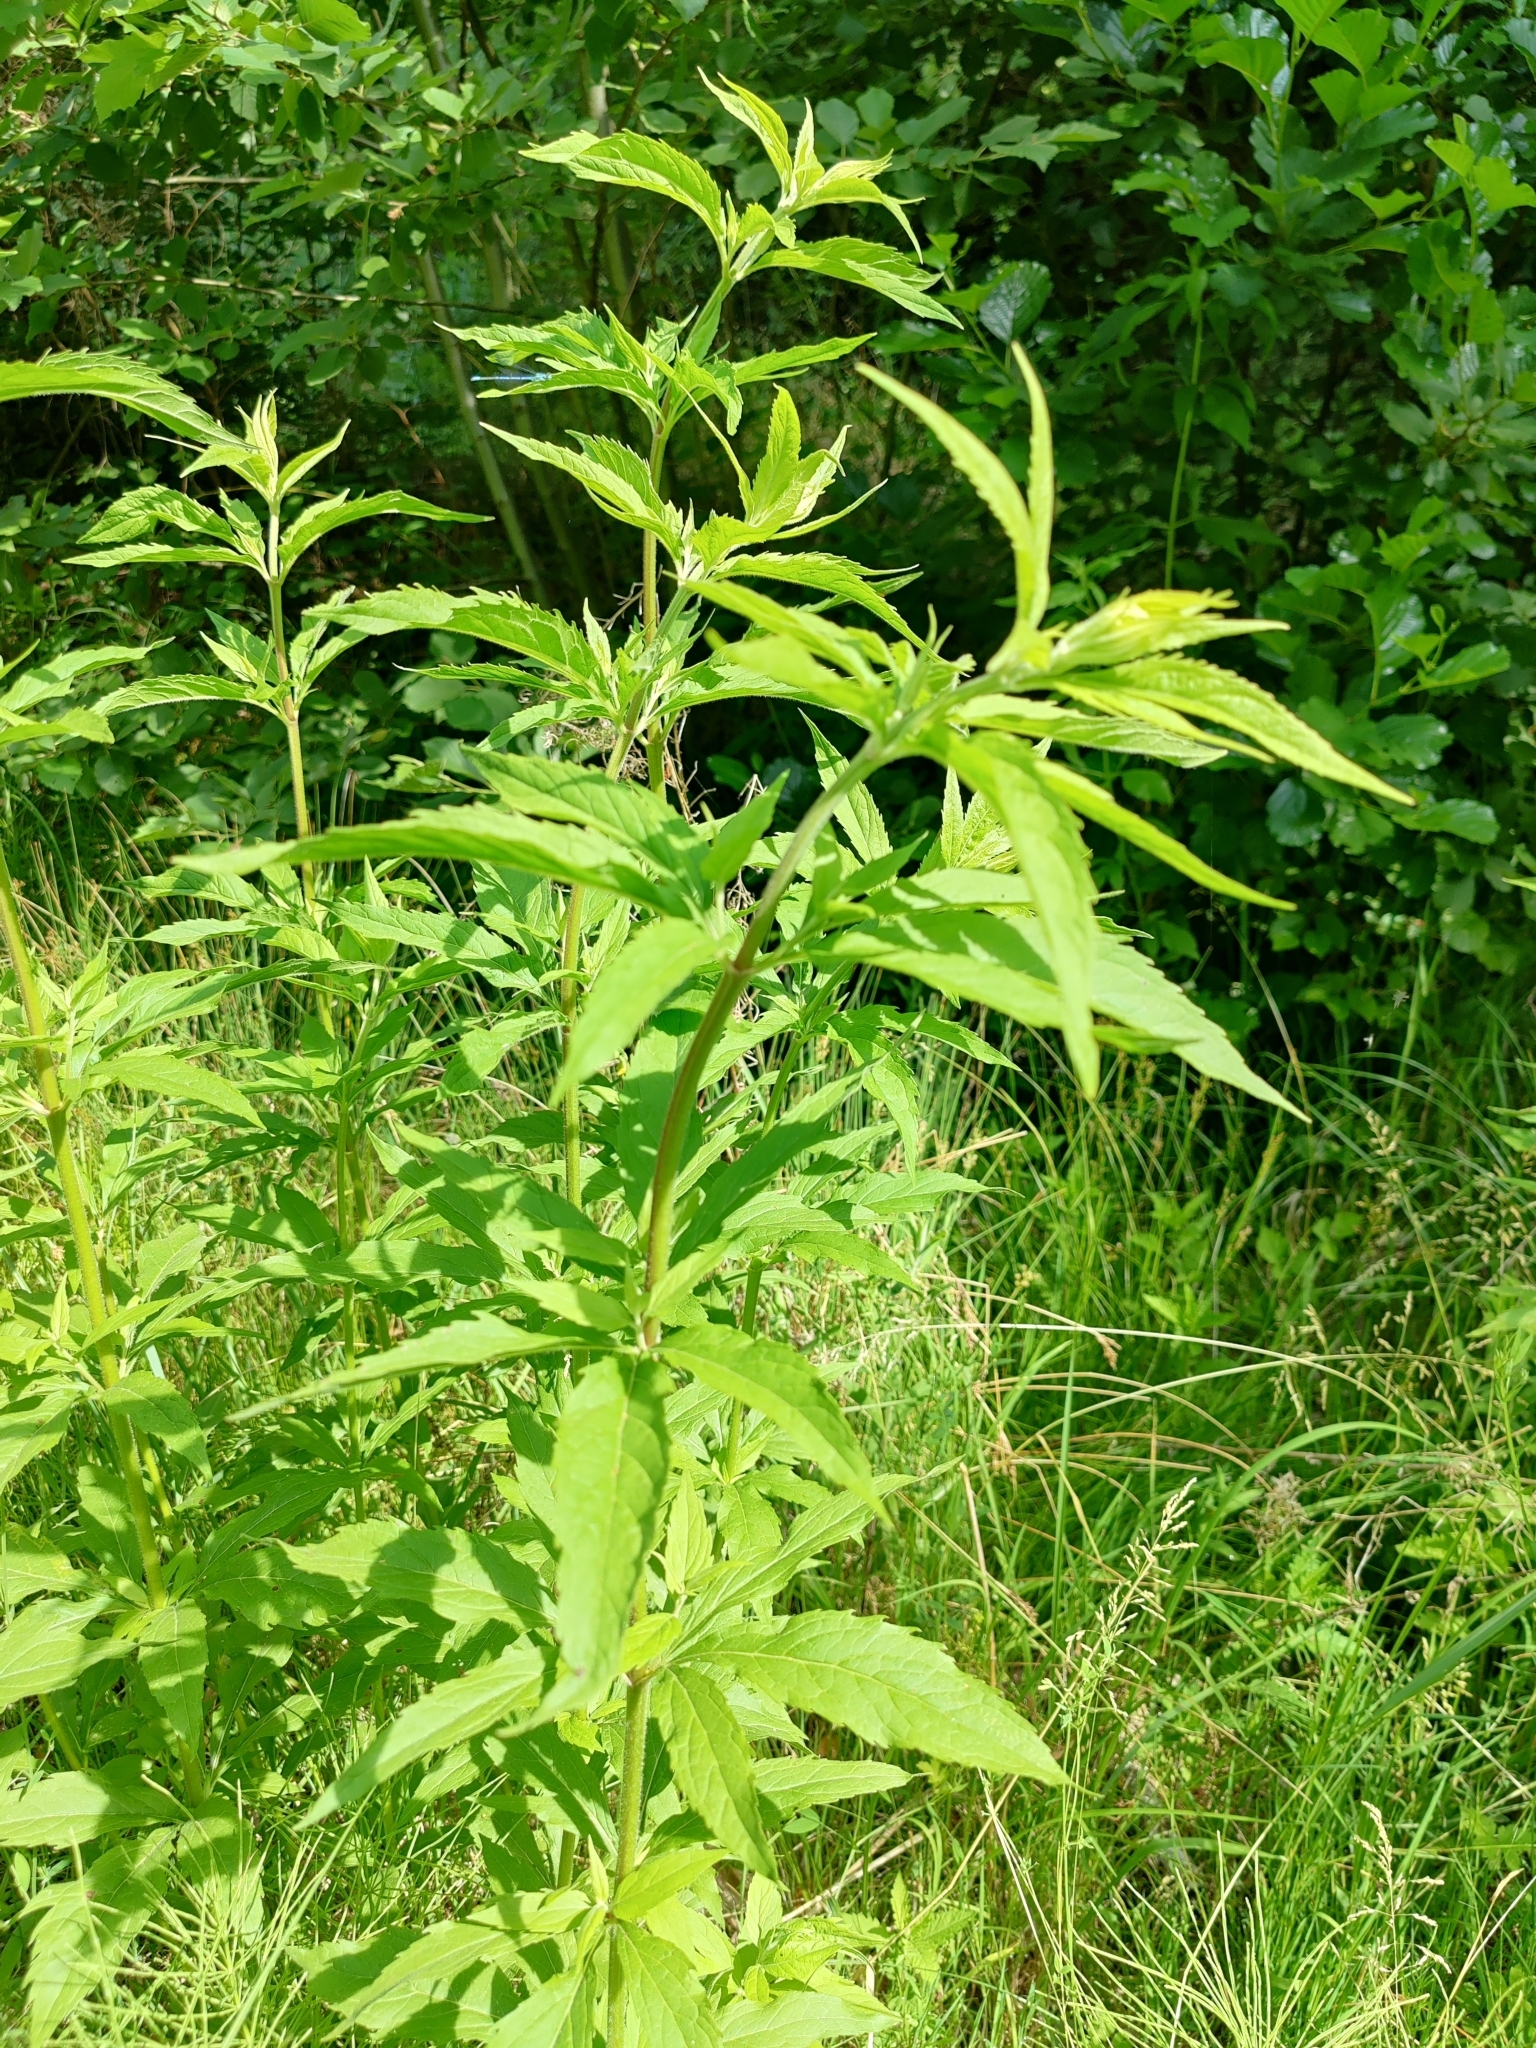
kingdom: Plantae
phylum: Tracheophyta
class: Magnoliopsida
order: Asterales
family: Asteraceae
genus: Eupatorium
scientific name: Eupatorium cannabinum
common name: Hemp-agrimony
